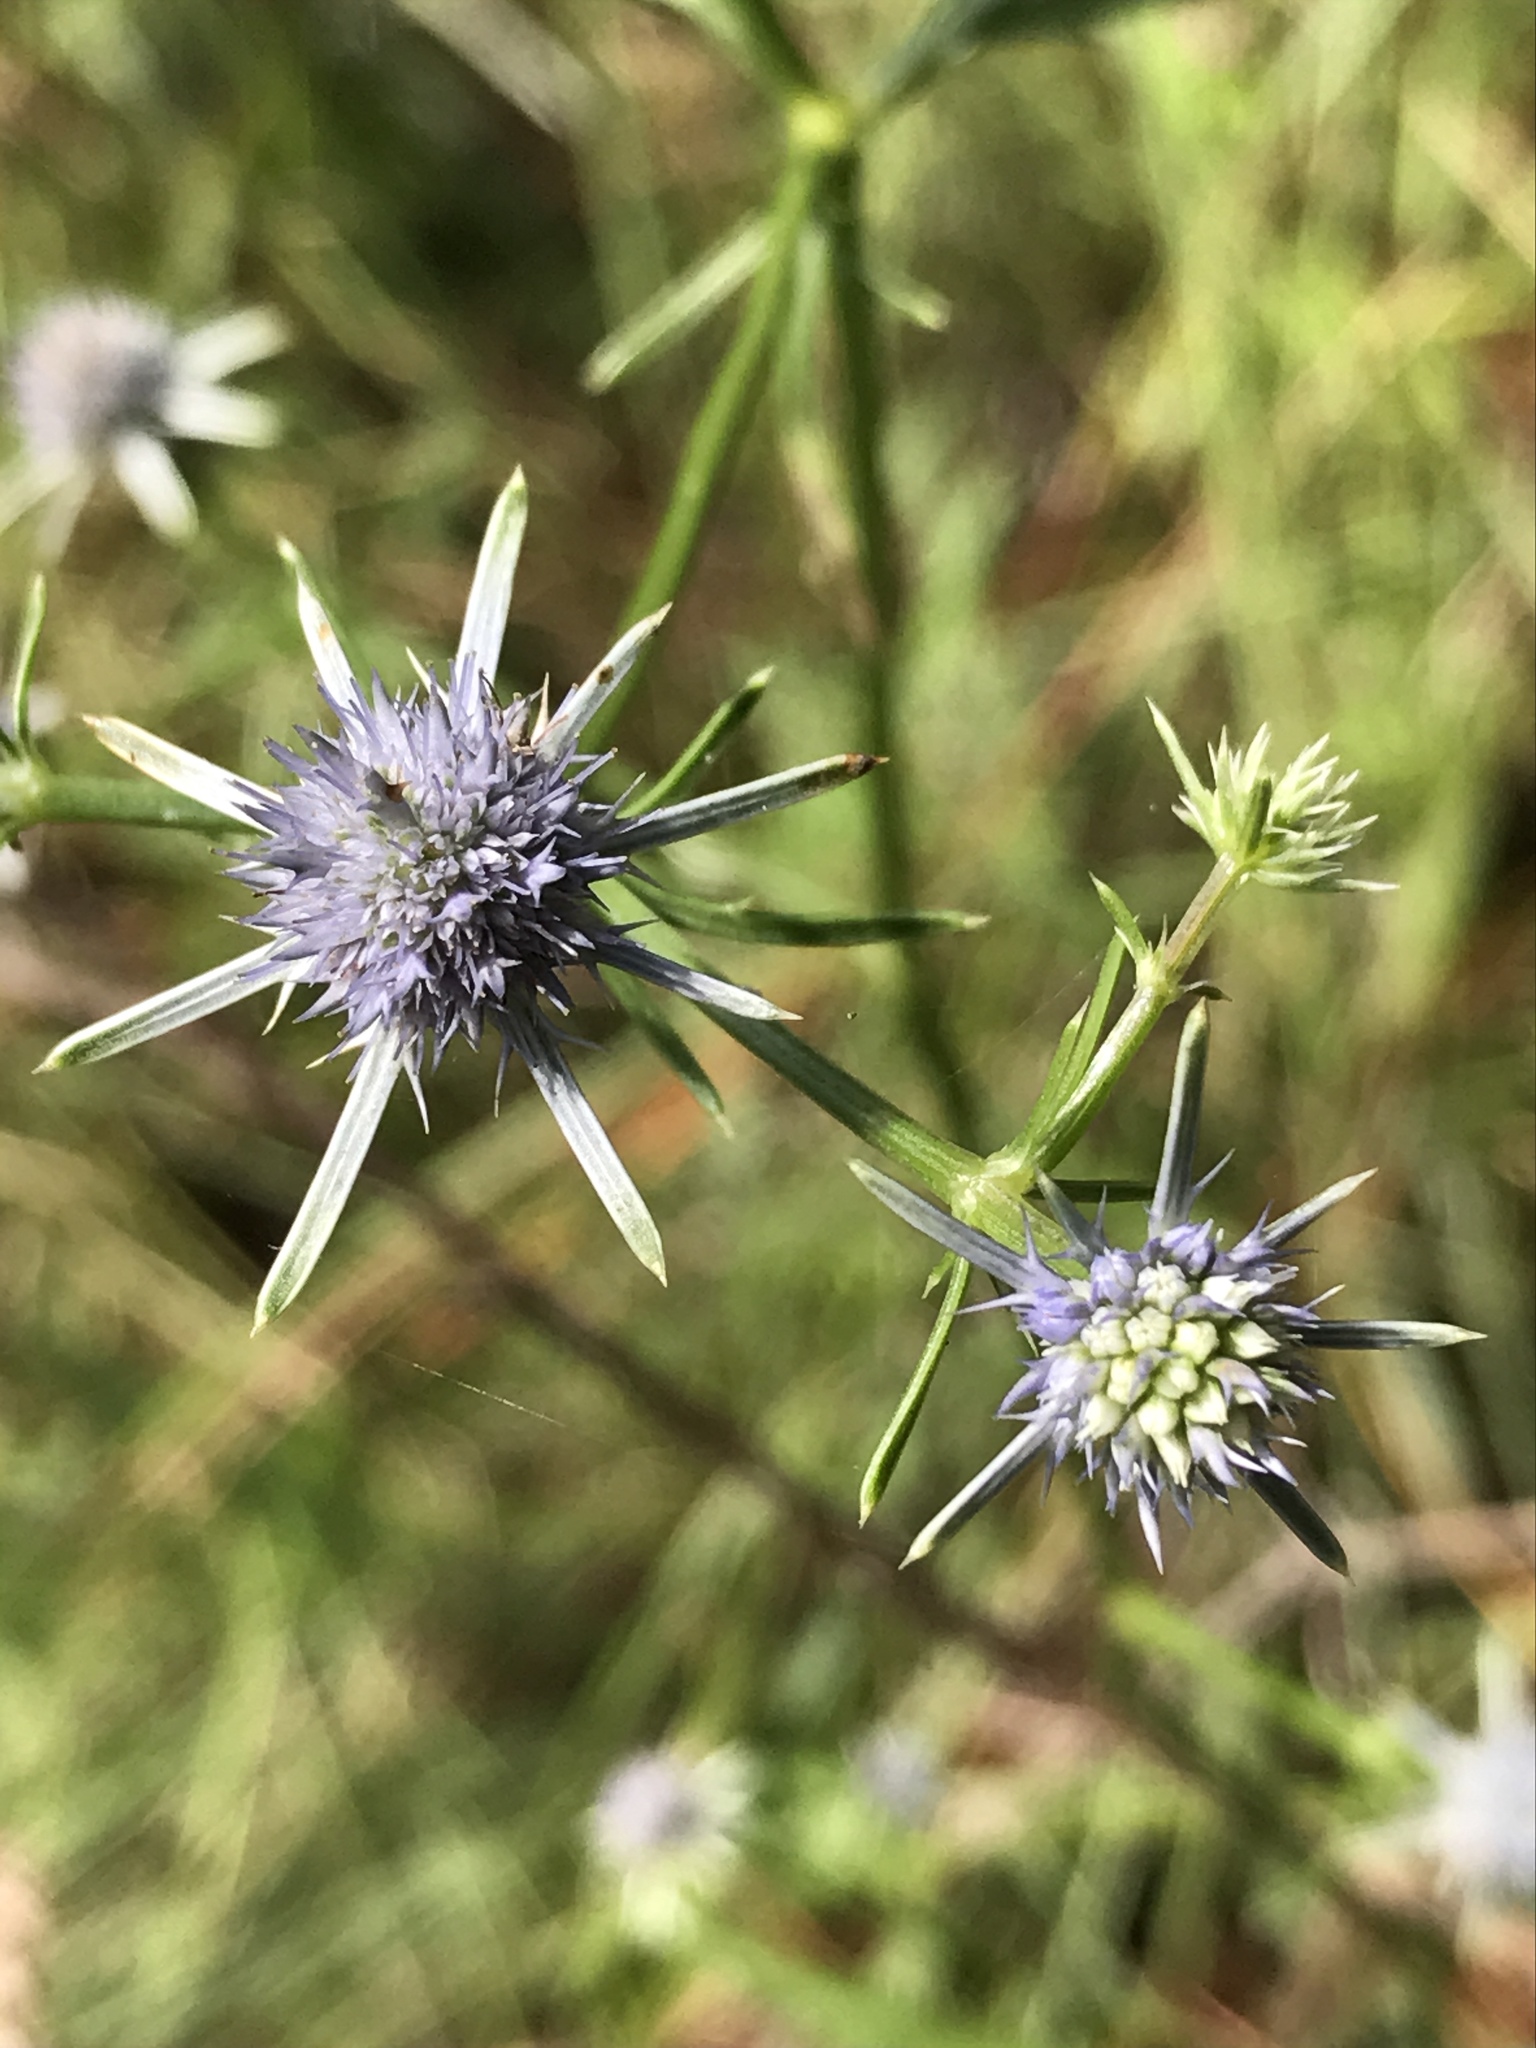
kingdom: Plantae
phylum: Tracheophyta
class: Magnoliopsida
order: Apiales
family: Apiaceae
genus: Eryngium
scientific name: Eryngium integrifolium
